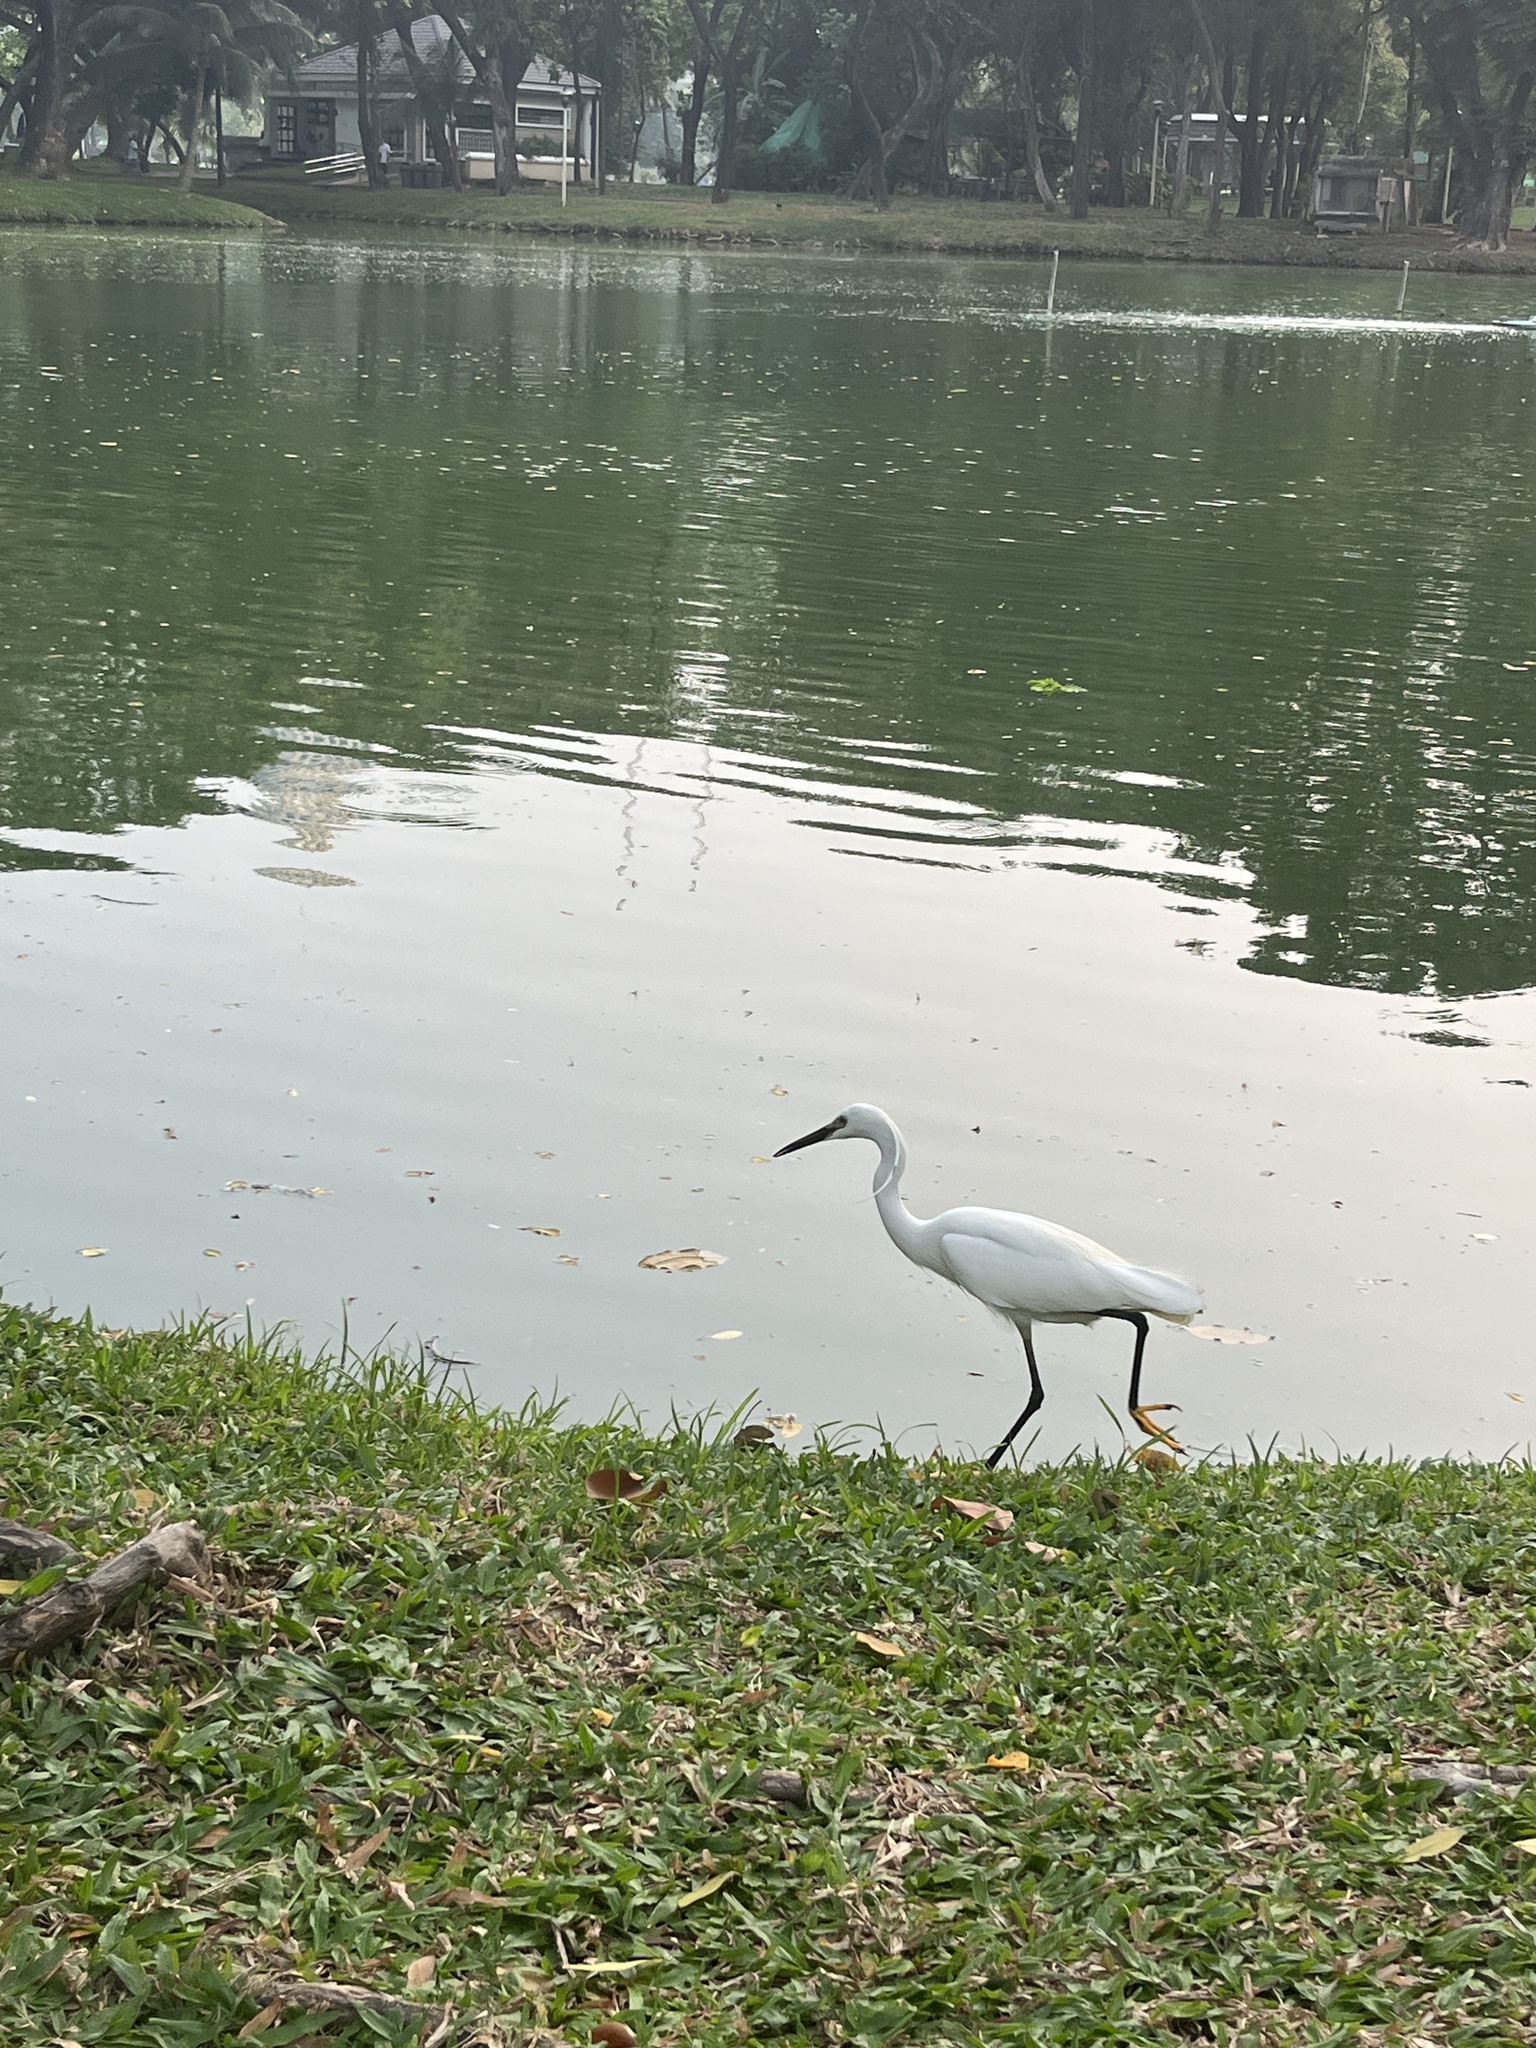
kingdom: Animalia
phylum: Chordata
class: Aves
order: Pelecaniformes
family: Ardeidae
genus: Egretta
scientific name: Egretta garzetta
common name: Little egret
